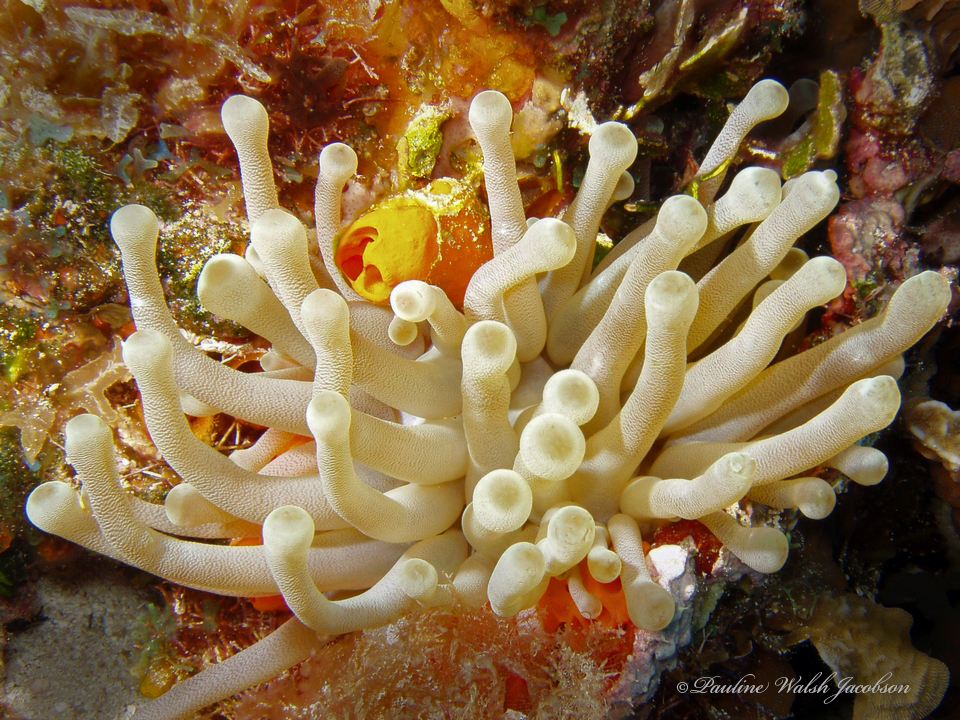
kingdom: Animalia
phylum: Cnidaria
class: Anthozoa
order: Actiniaria
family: Actiniidae
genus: Condylactis
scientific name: Condylactis gigantea
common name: Giant caribbean anemone
